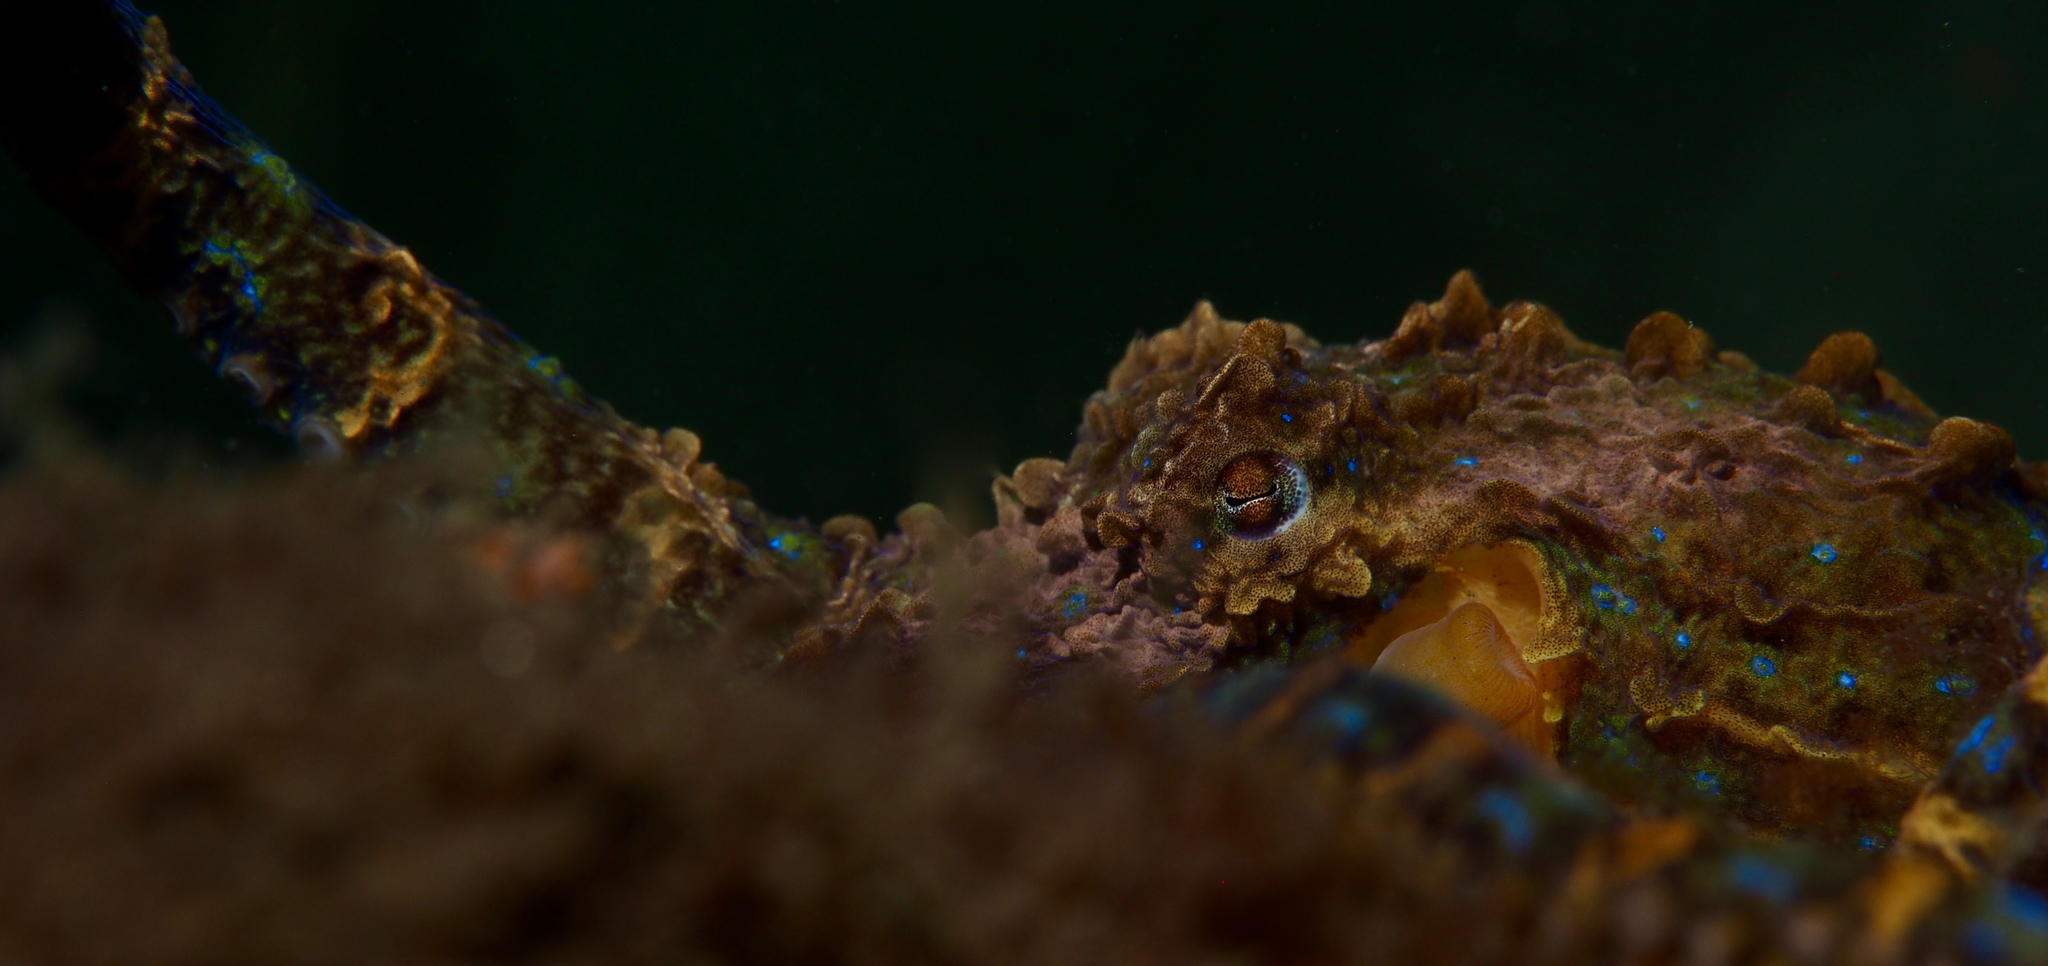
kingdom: Animalia
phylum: Mollusca
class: Cephalopoda
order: Octopoda
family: Octopodidae
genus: Hapalochlaena
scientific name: Hapalochlaena maculosa
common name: Blue-ringed octopus
